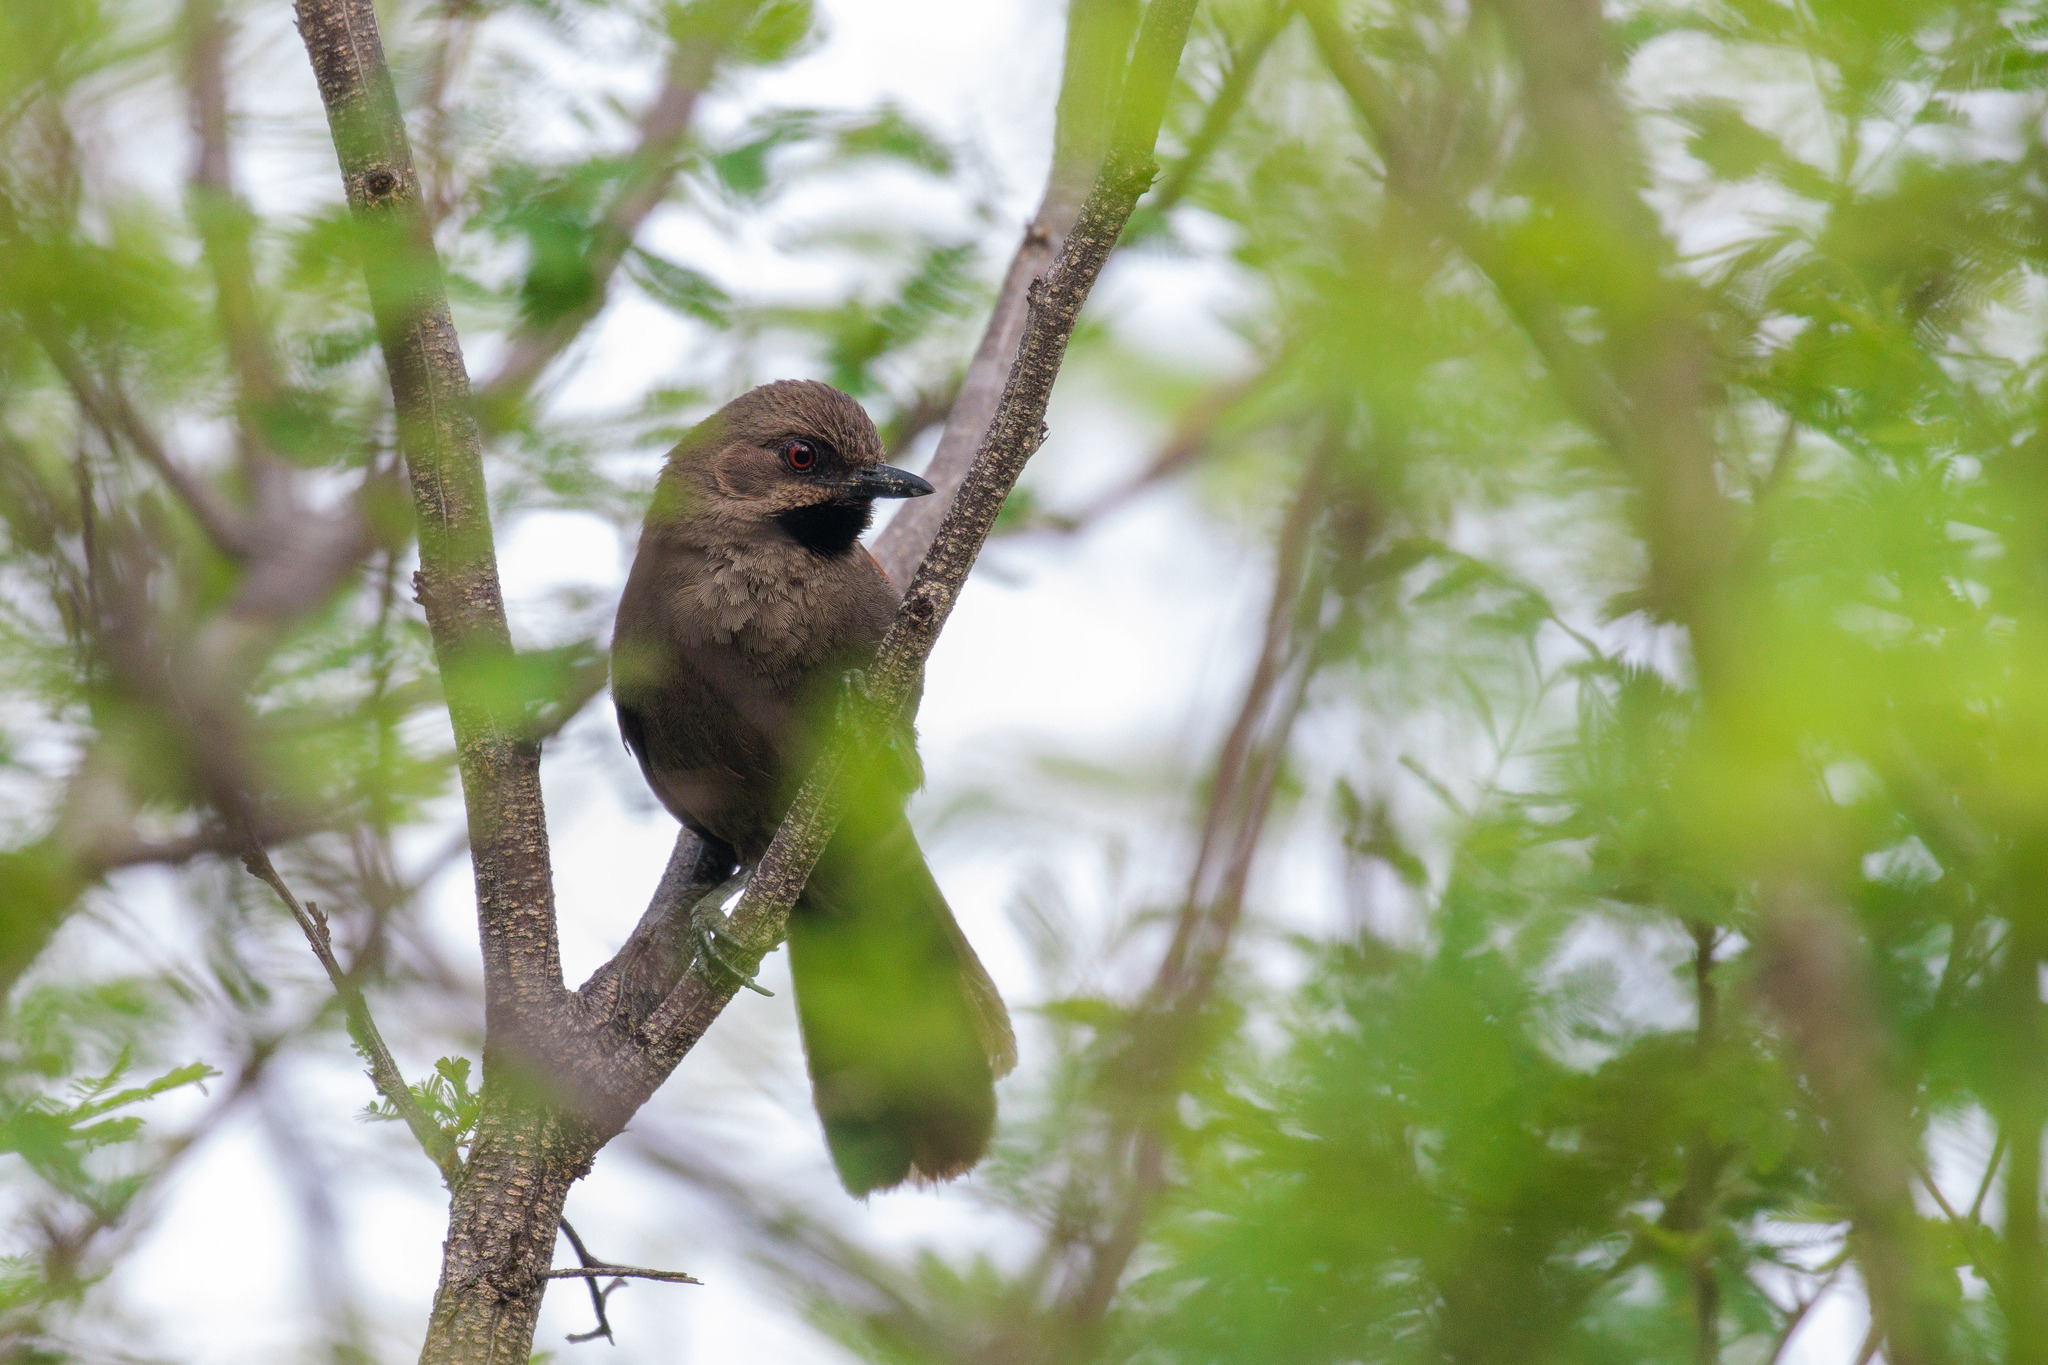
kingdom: Animalia
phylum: Chordata
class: Aves
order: Passeriformes
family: Furnariidae
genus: Gyalophylax
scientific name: Gyalophylax hellmayri
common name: Red-shouldered spinetail
